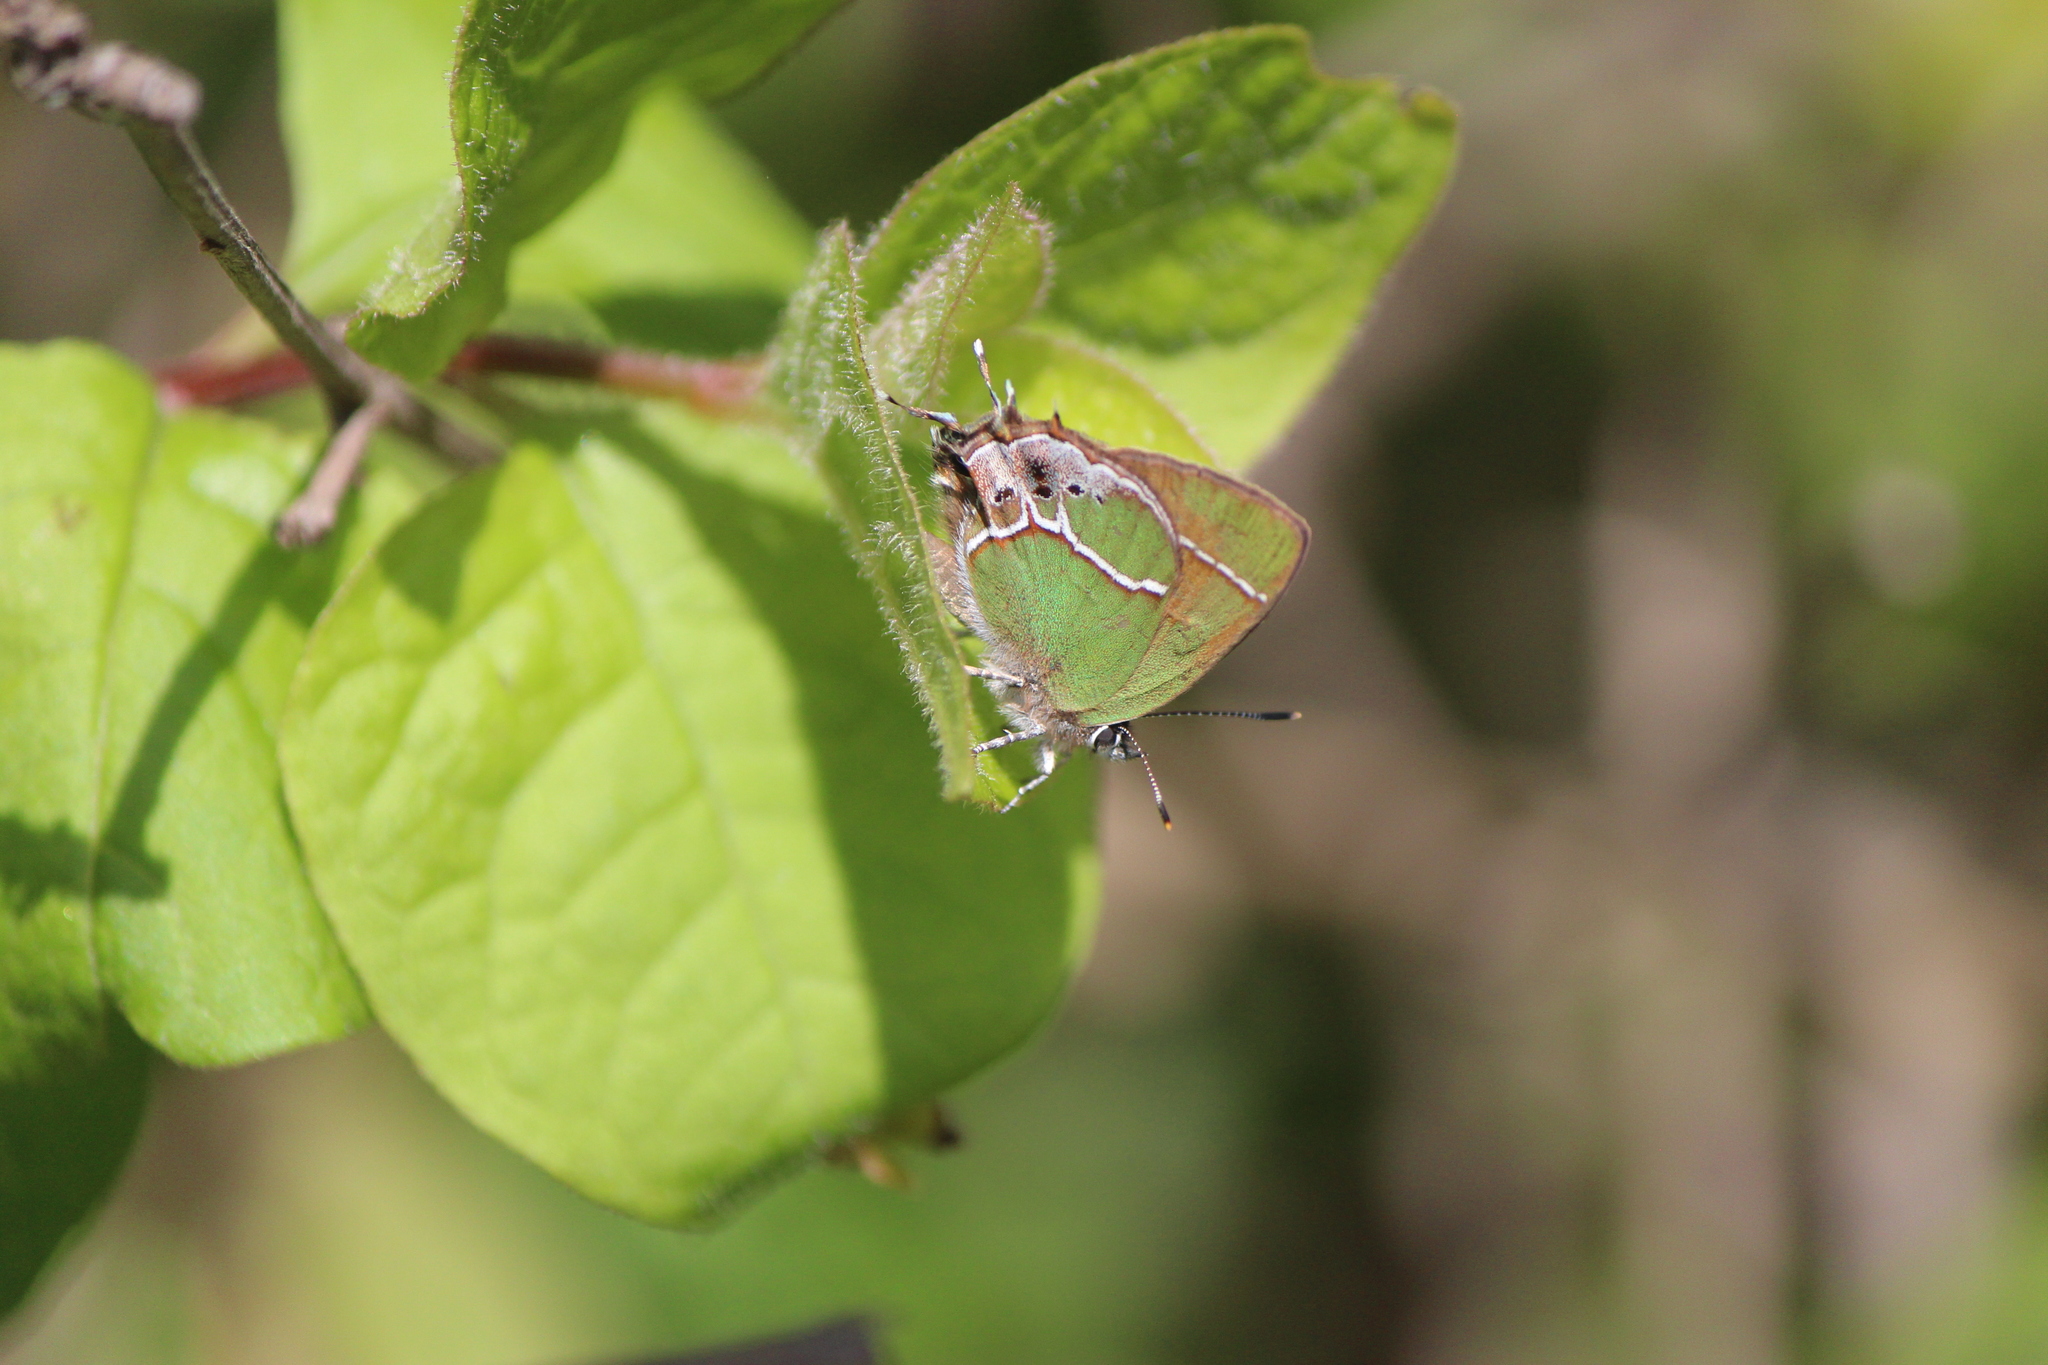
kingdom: Animalia
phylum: Arthropoda
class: Insecta
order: Lepidoptera
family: Lycaenidae
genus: Xamia
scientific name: Xamia xami
